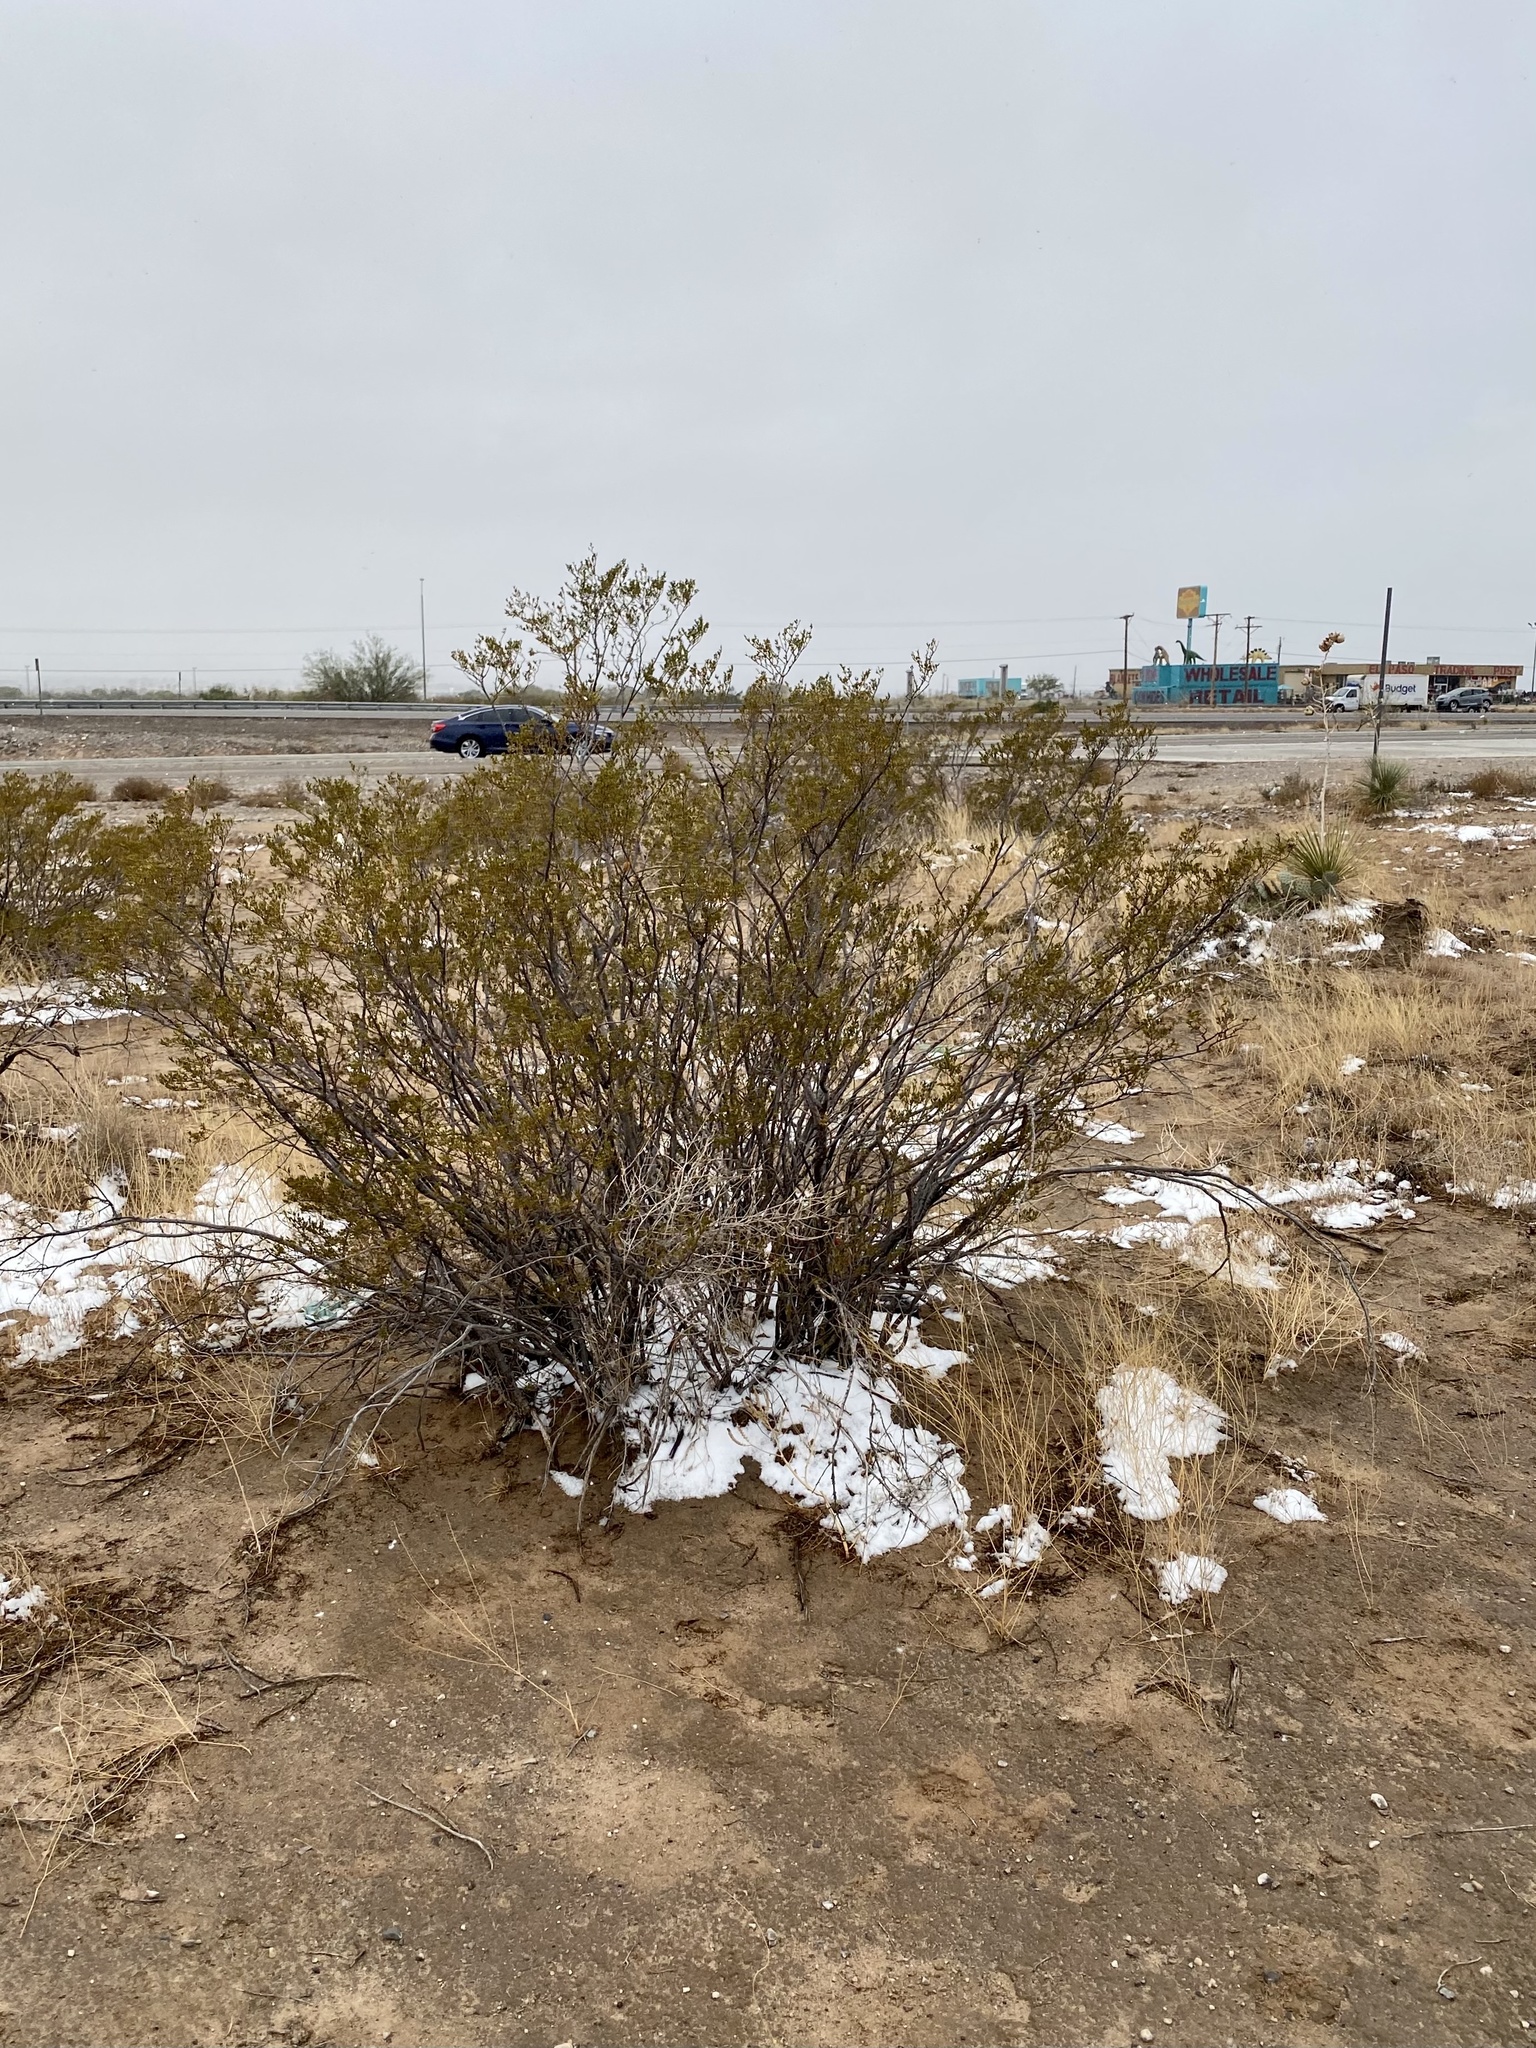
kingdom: Plantae
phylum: Tracheophyta
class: Magnoliopsida
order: Zygophyllales
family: Zygophyllaceae
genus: Larrea
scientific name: Larrea tridentata
